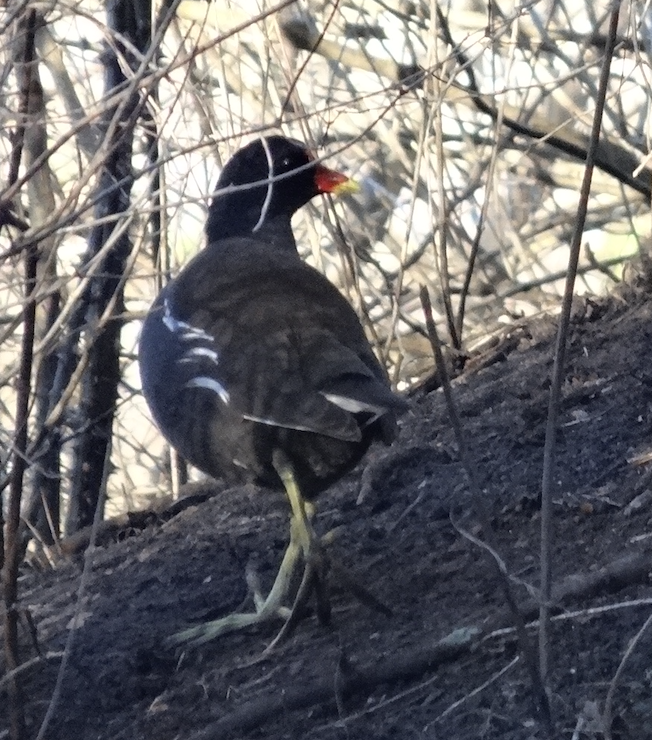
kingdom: Animalia
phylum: Chordata
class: Aves
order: Gruiformes
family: Rallidae
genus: Gallinula
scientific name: Gallinula chloropus
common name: Common moorhen
